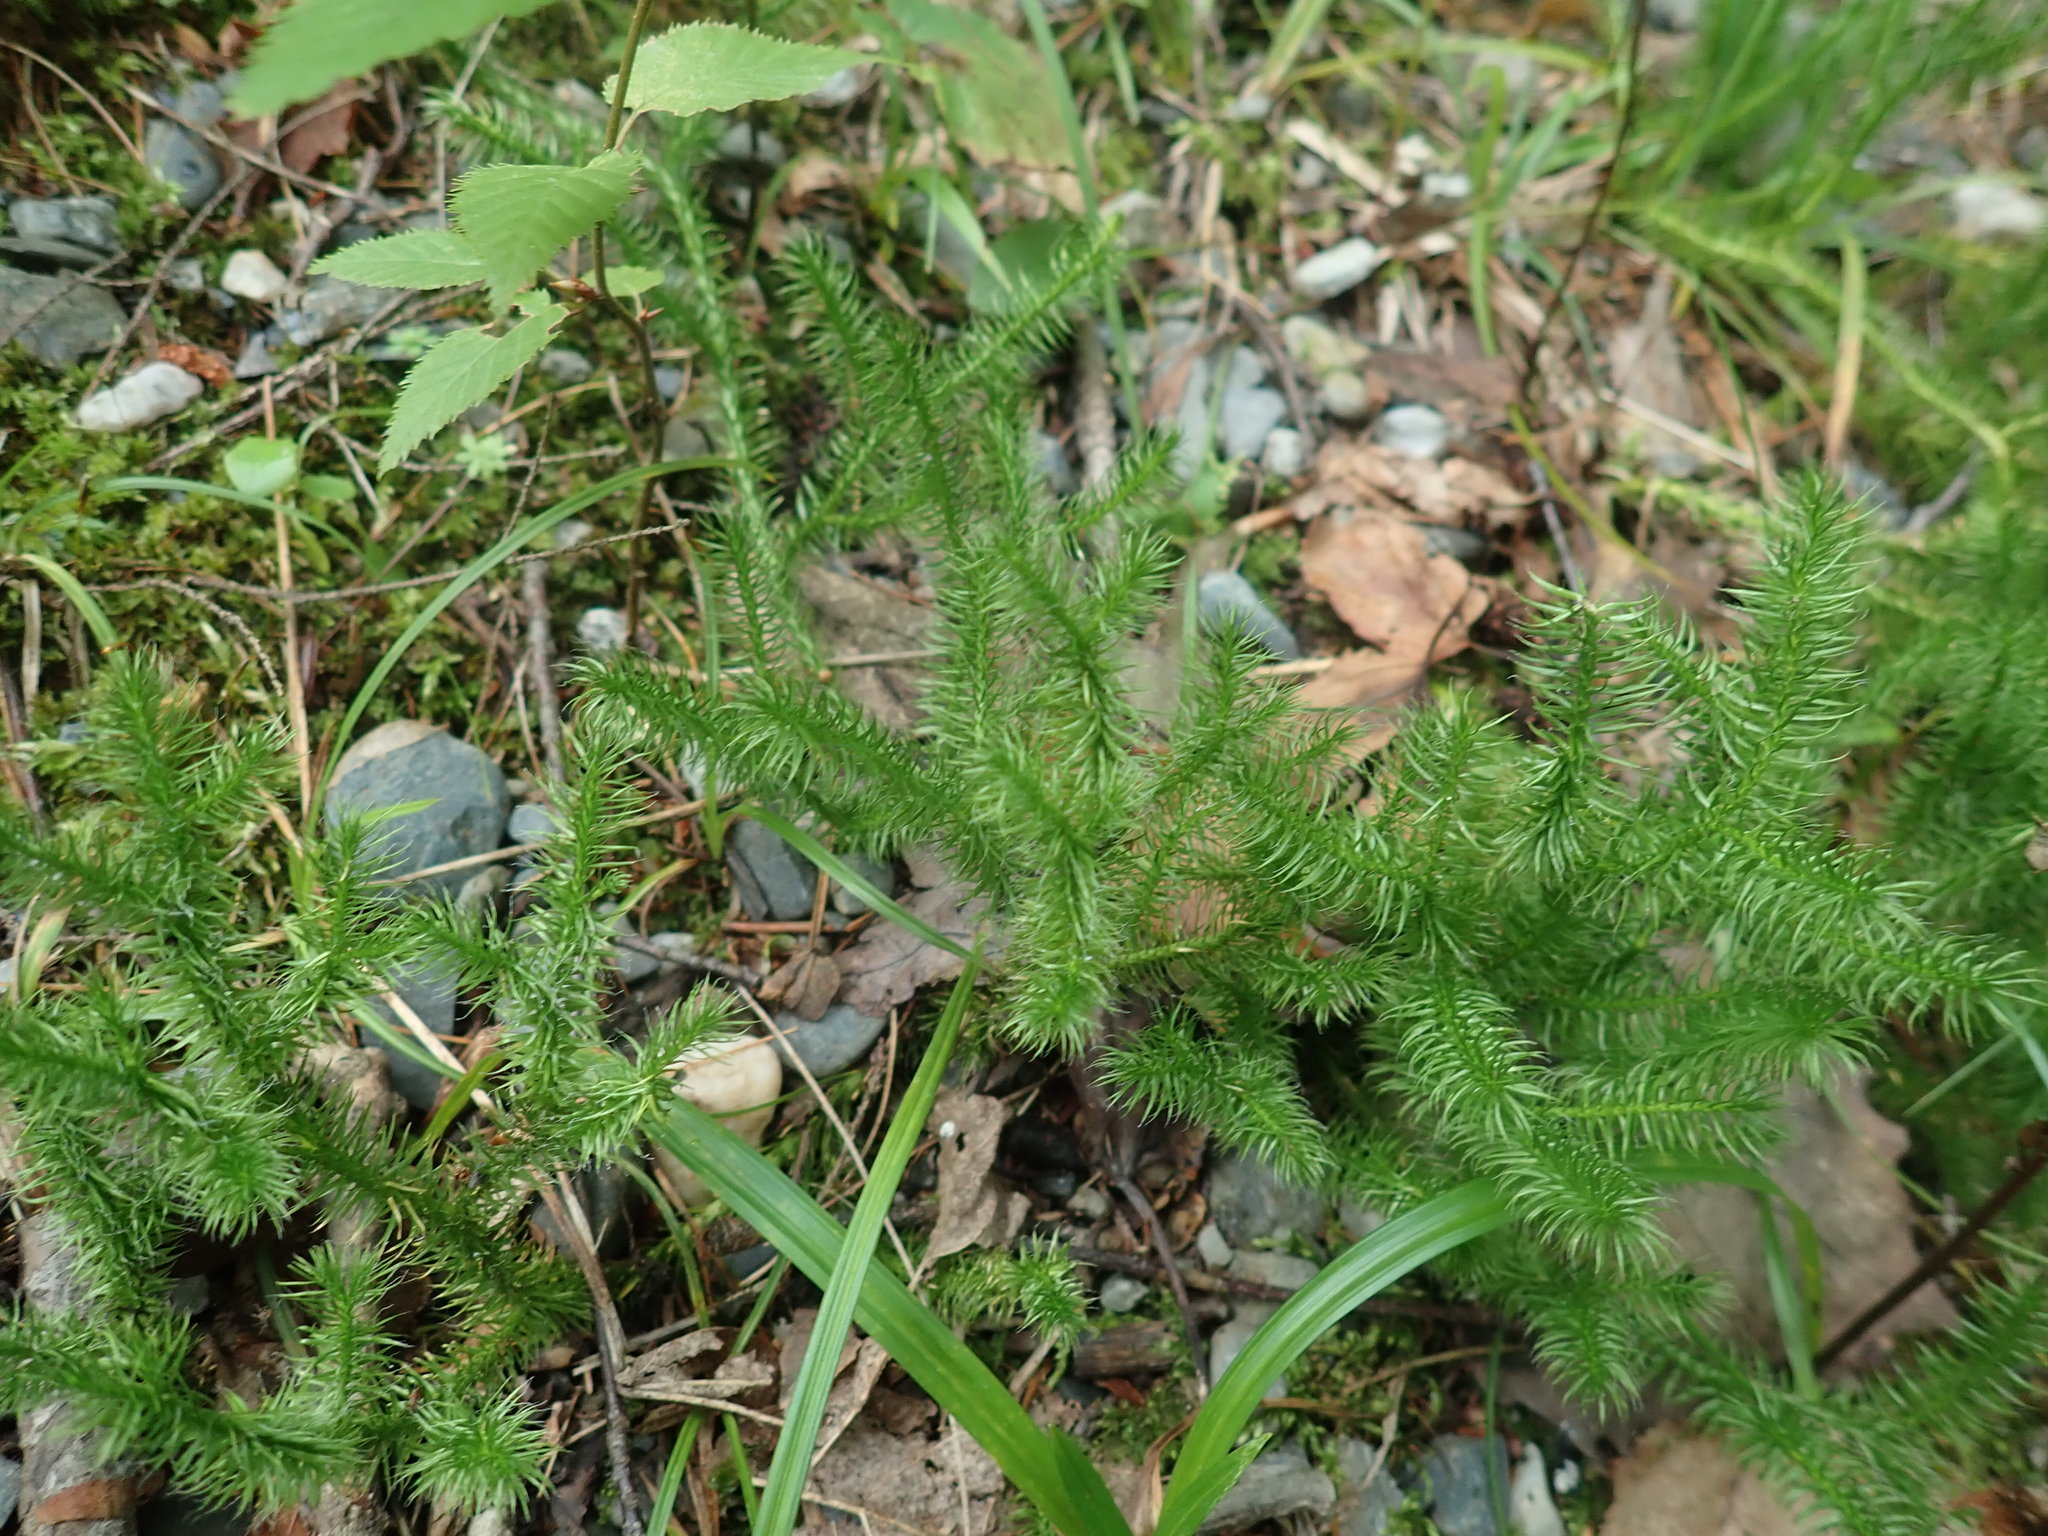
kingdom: Plantae
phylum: Tracheophyta
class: Lycopodiopsida
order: Lycopodiales
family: Lycopodiaceae
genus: Lycopodium
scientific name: Lycopodium clavatum
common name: Stag's-horn clubmoss
